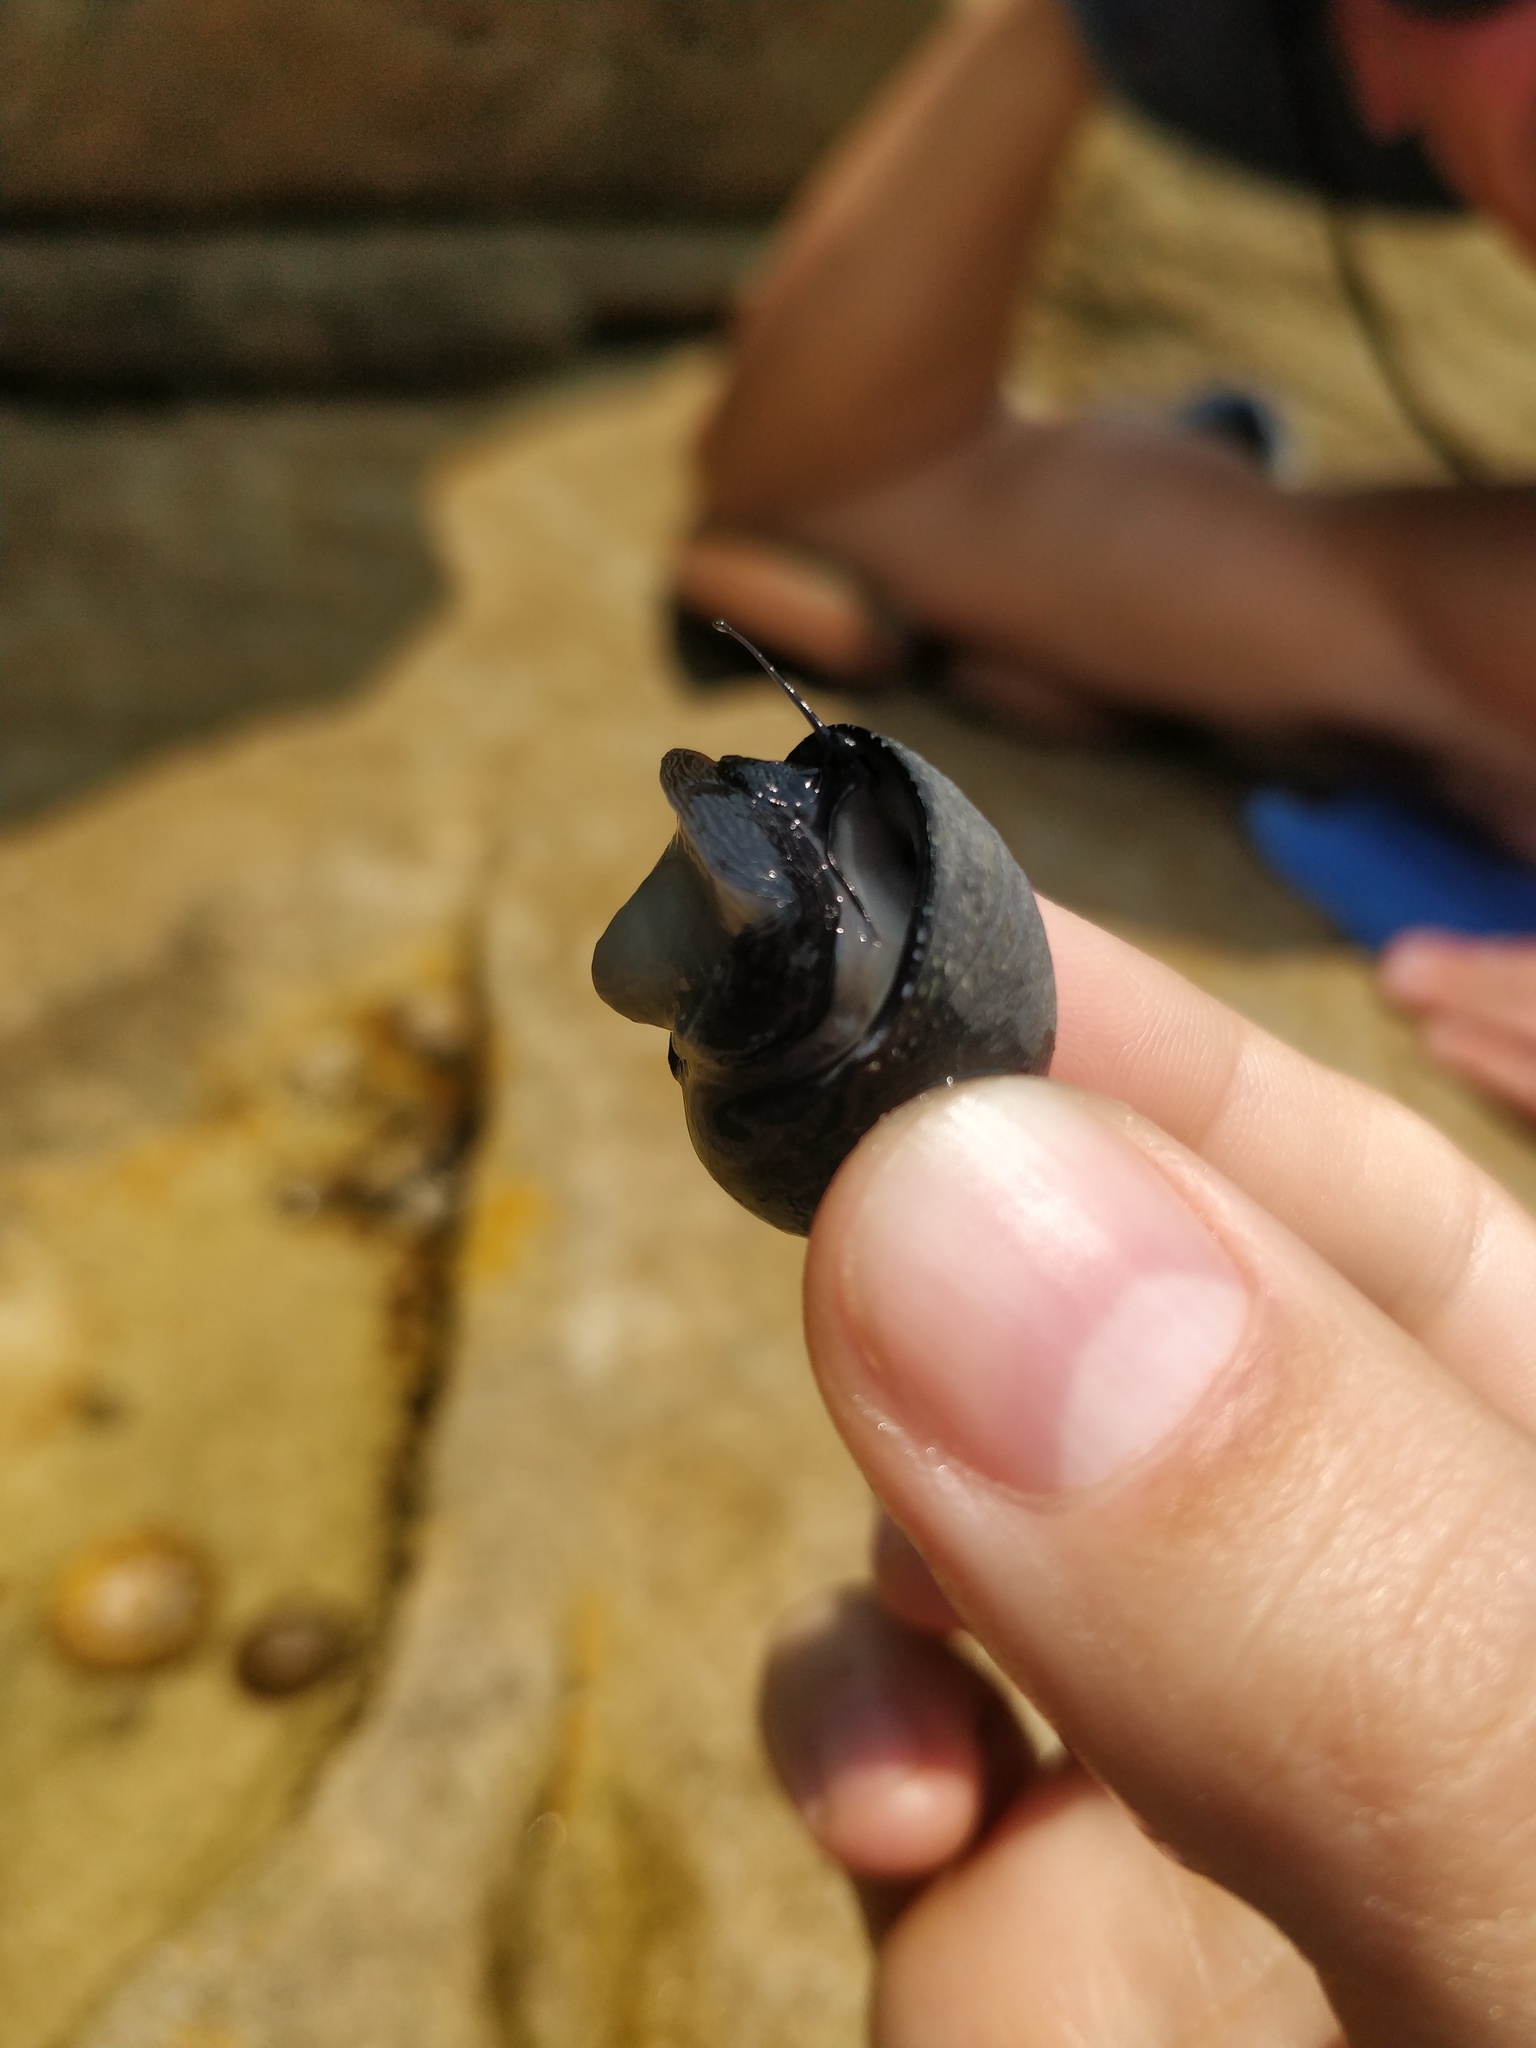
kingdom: Animalia
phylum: Mollusca
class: Gastropoda
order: Cycloneritida
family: Neritidae
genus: Nerita
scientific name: Nerita melanotragus
